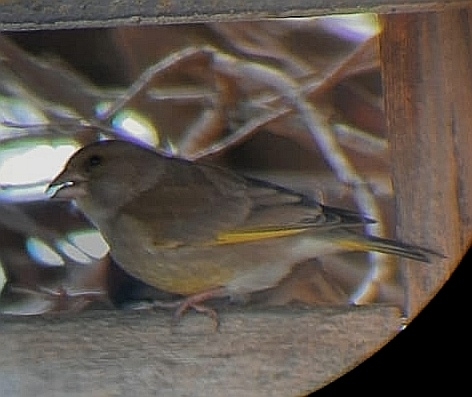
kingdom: Plantae
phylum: Tracheophyta
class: Liliopsida
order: Poales
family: Poaceae
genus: Chloris
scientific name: Chloris chloris
